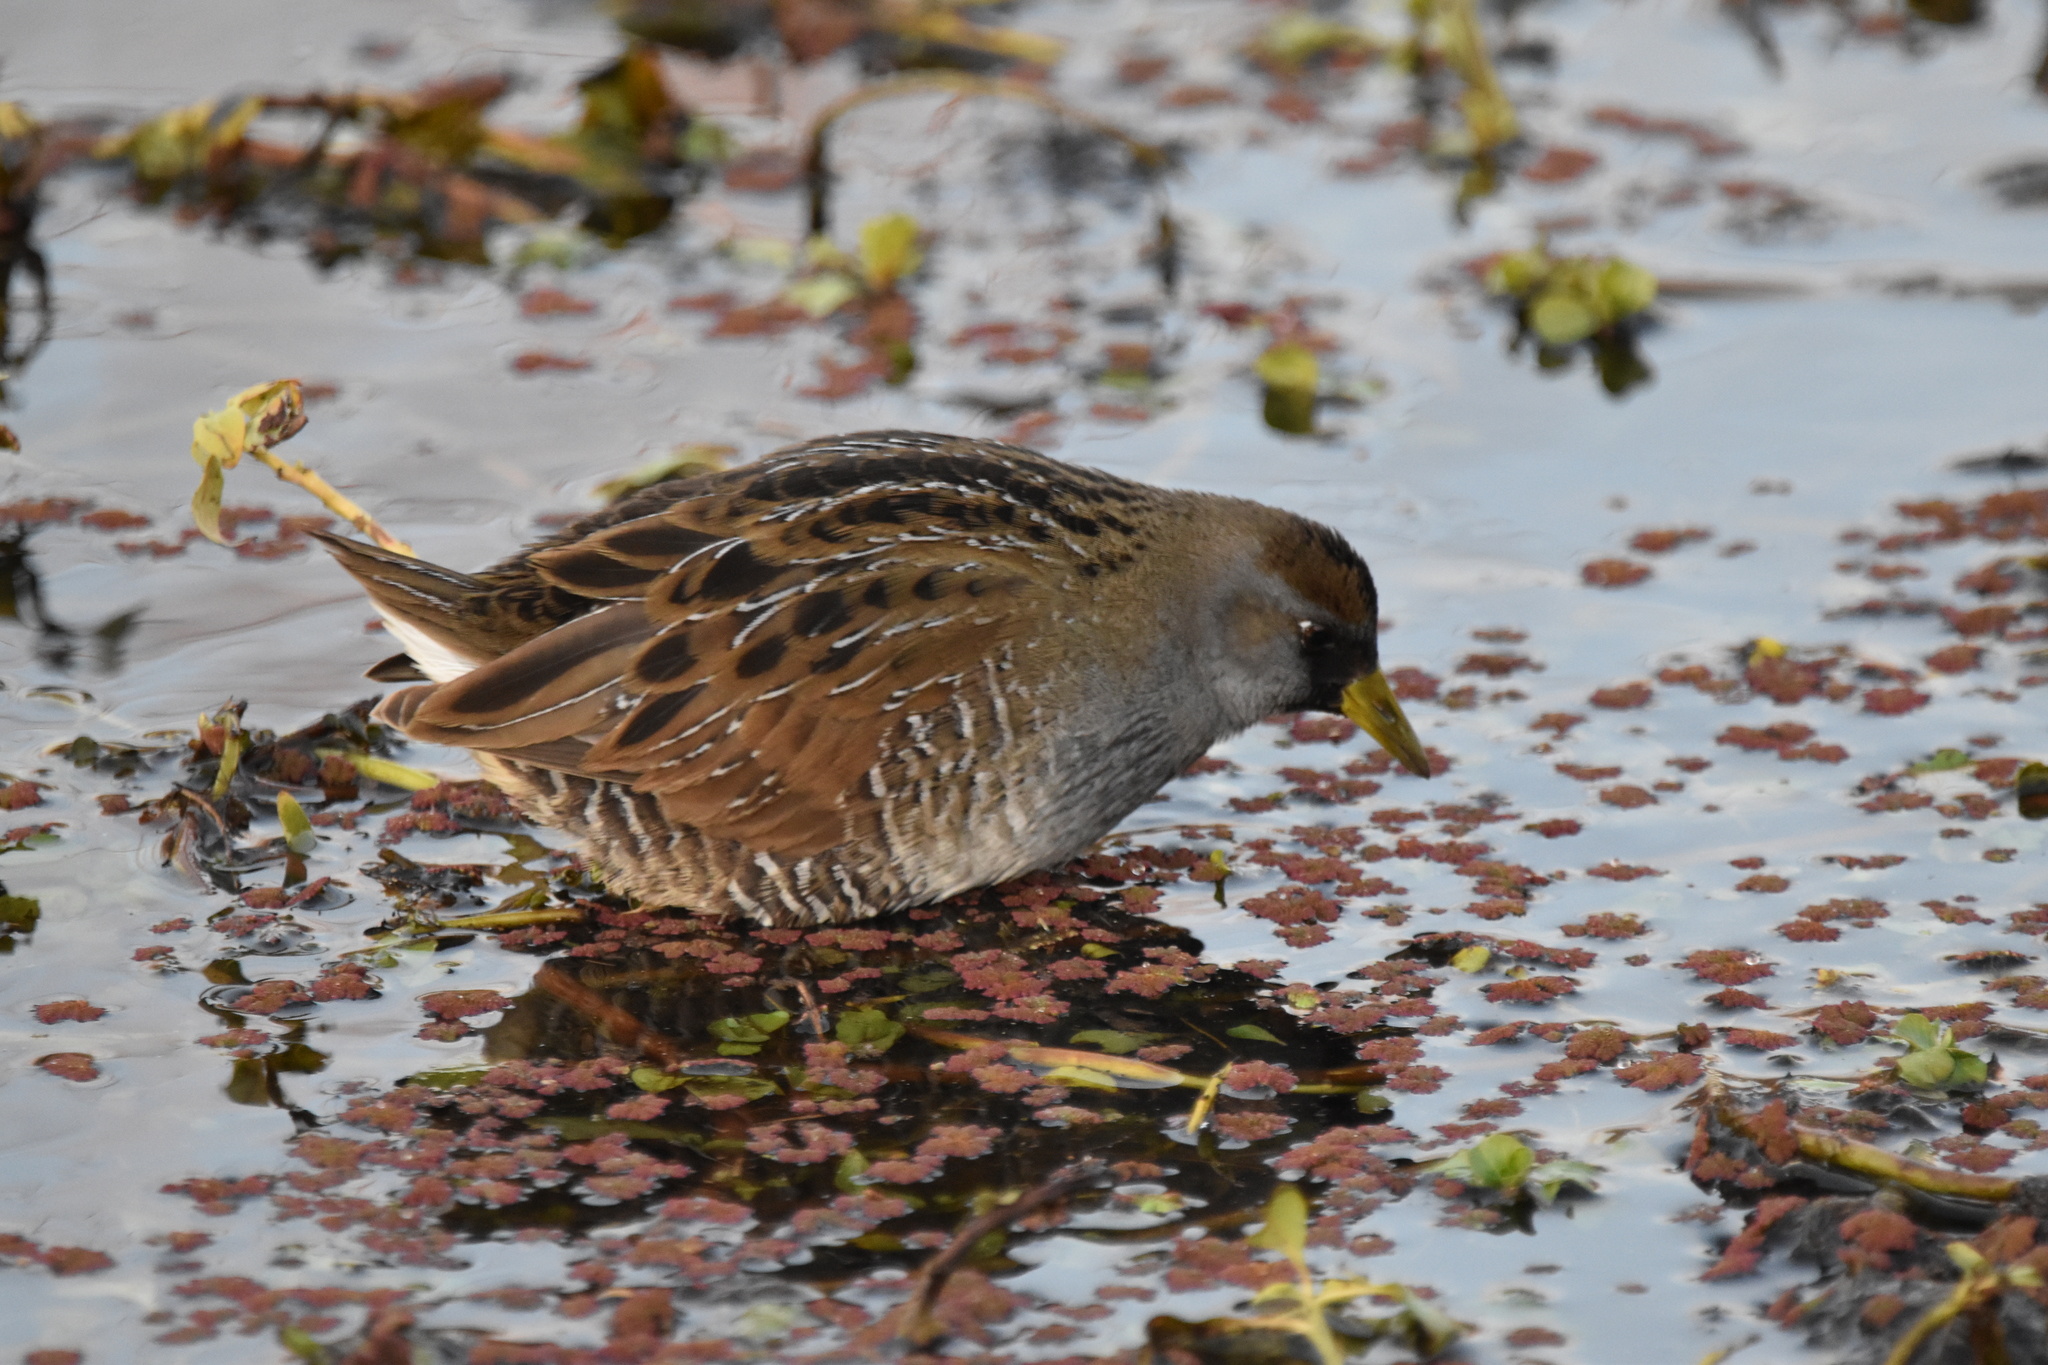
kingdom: Animalia
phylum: Chordata
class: Aves
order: Gruiformes
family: Rallidae
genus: Porzana
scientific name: Porzana carolina
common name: Sora
